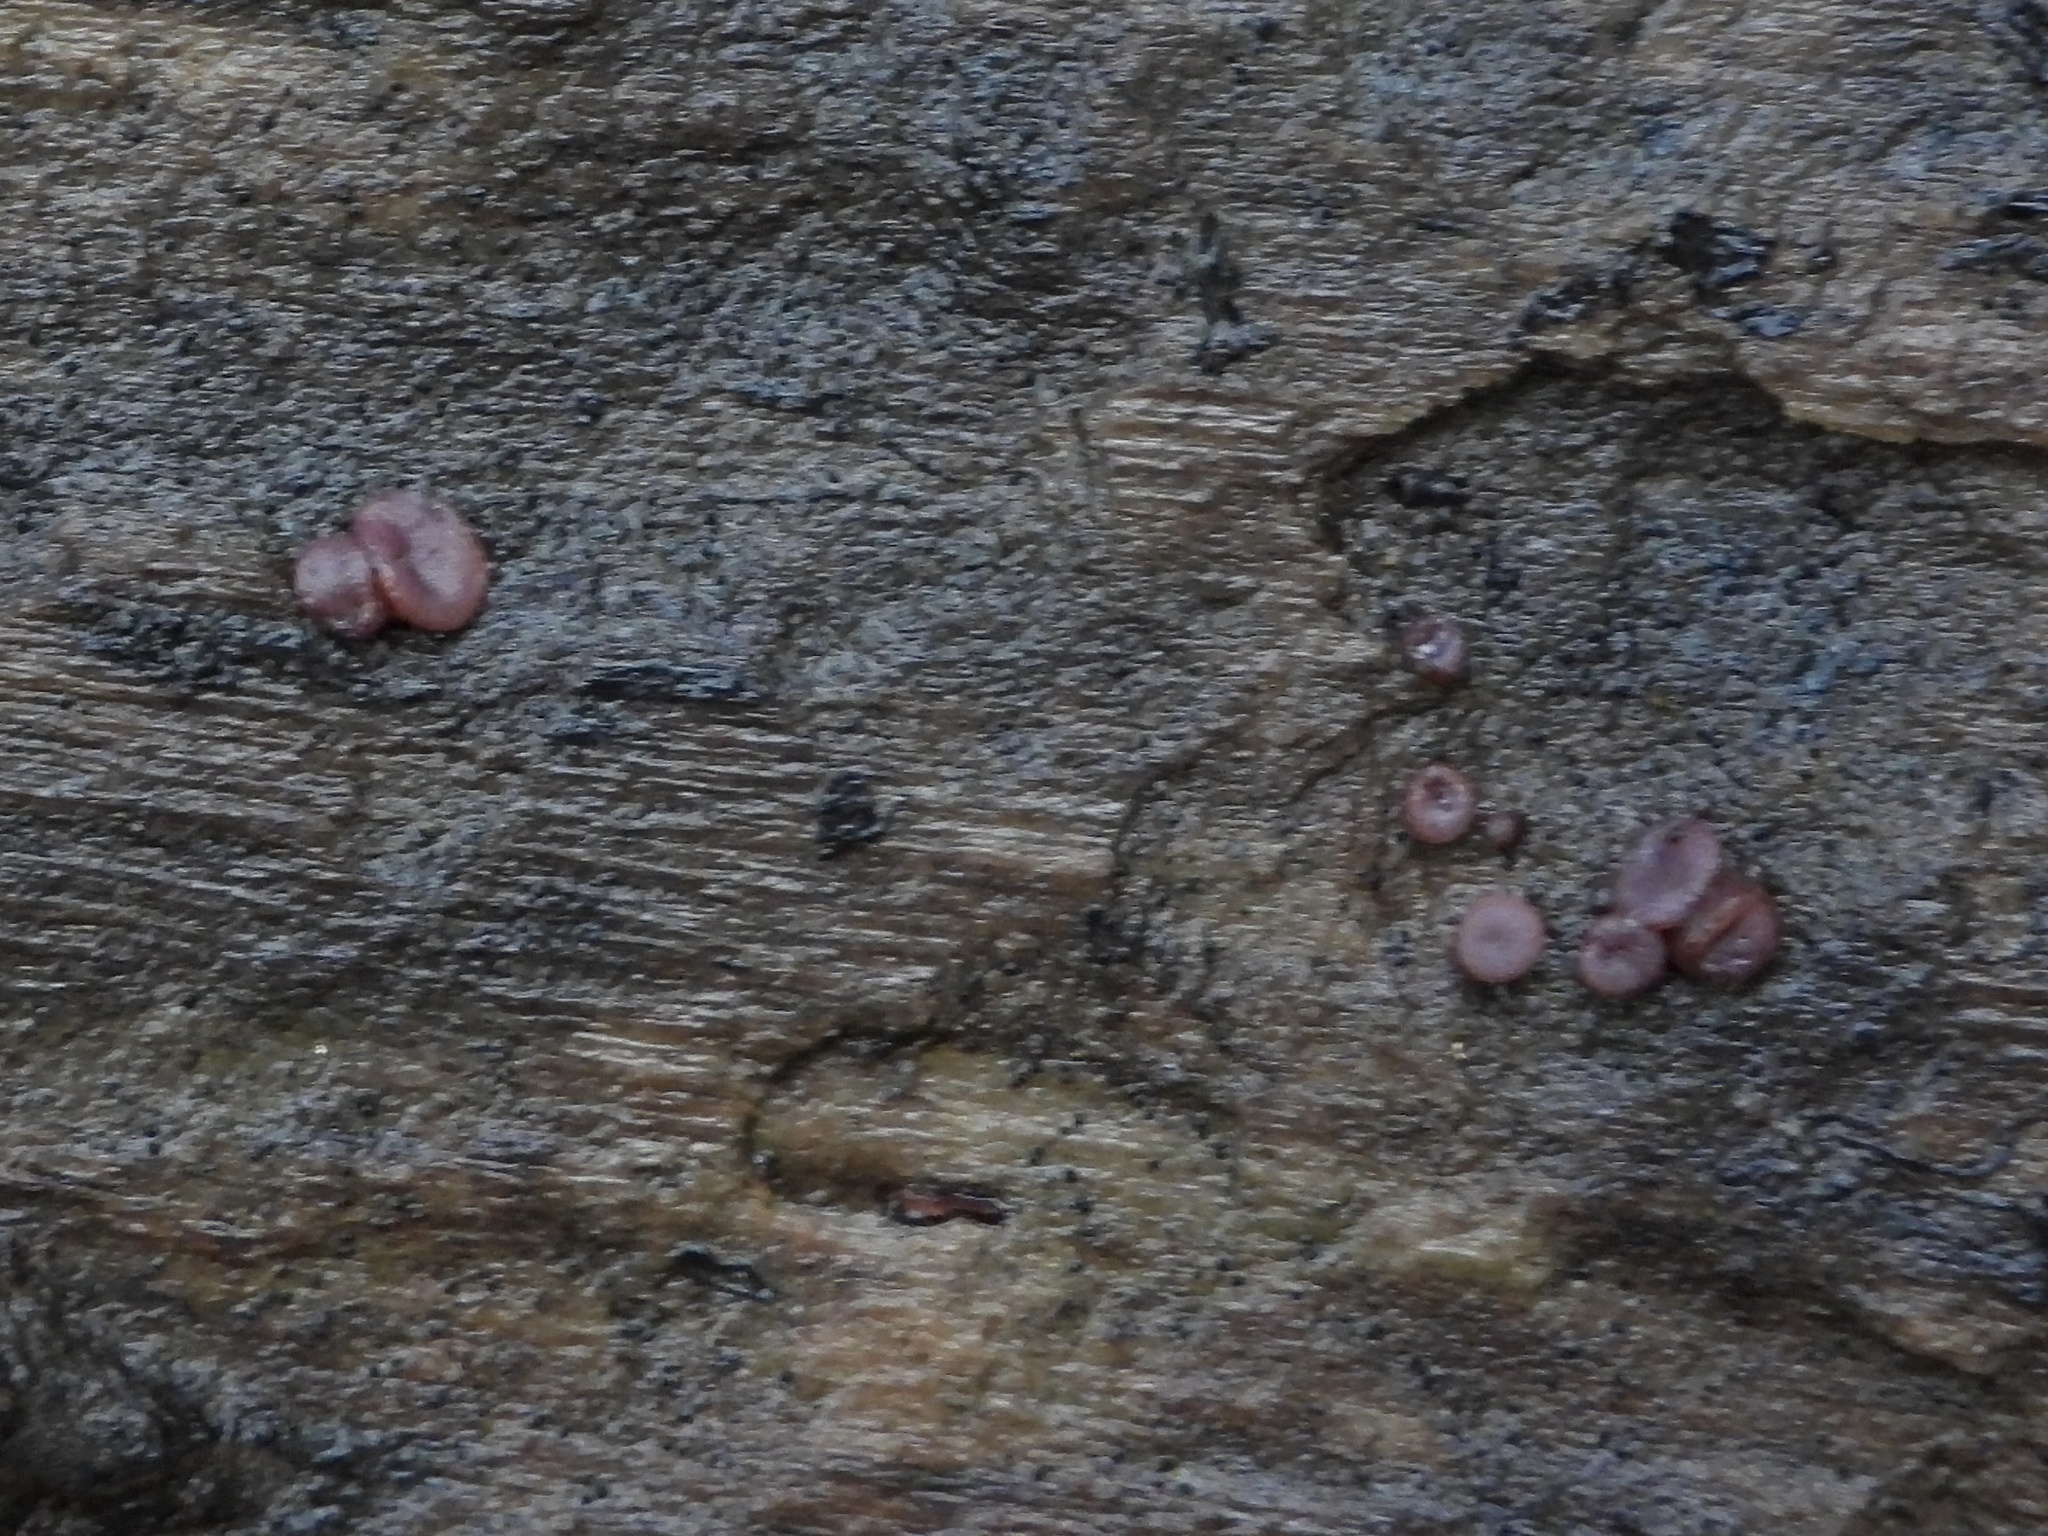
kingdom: Fungi
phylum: Ascomycota
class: Leotiomycetes
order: Helotiales
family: Gelatinodiscaceae
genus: Ascocoryne
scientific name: Ascocoryne sarcoides
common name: Purple jellydisc
